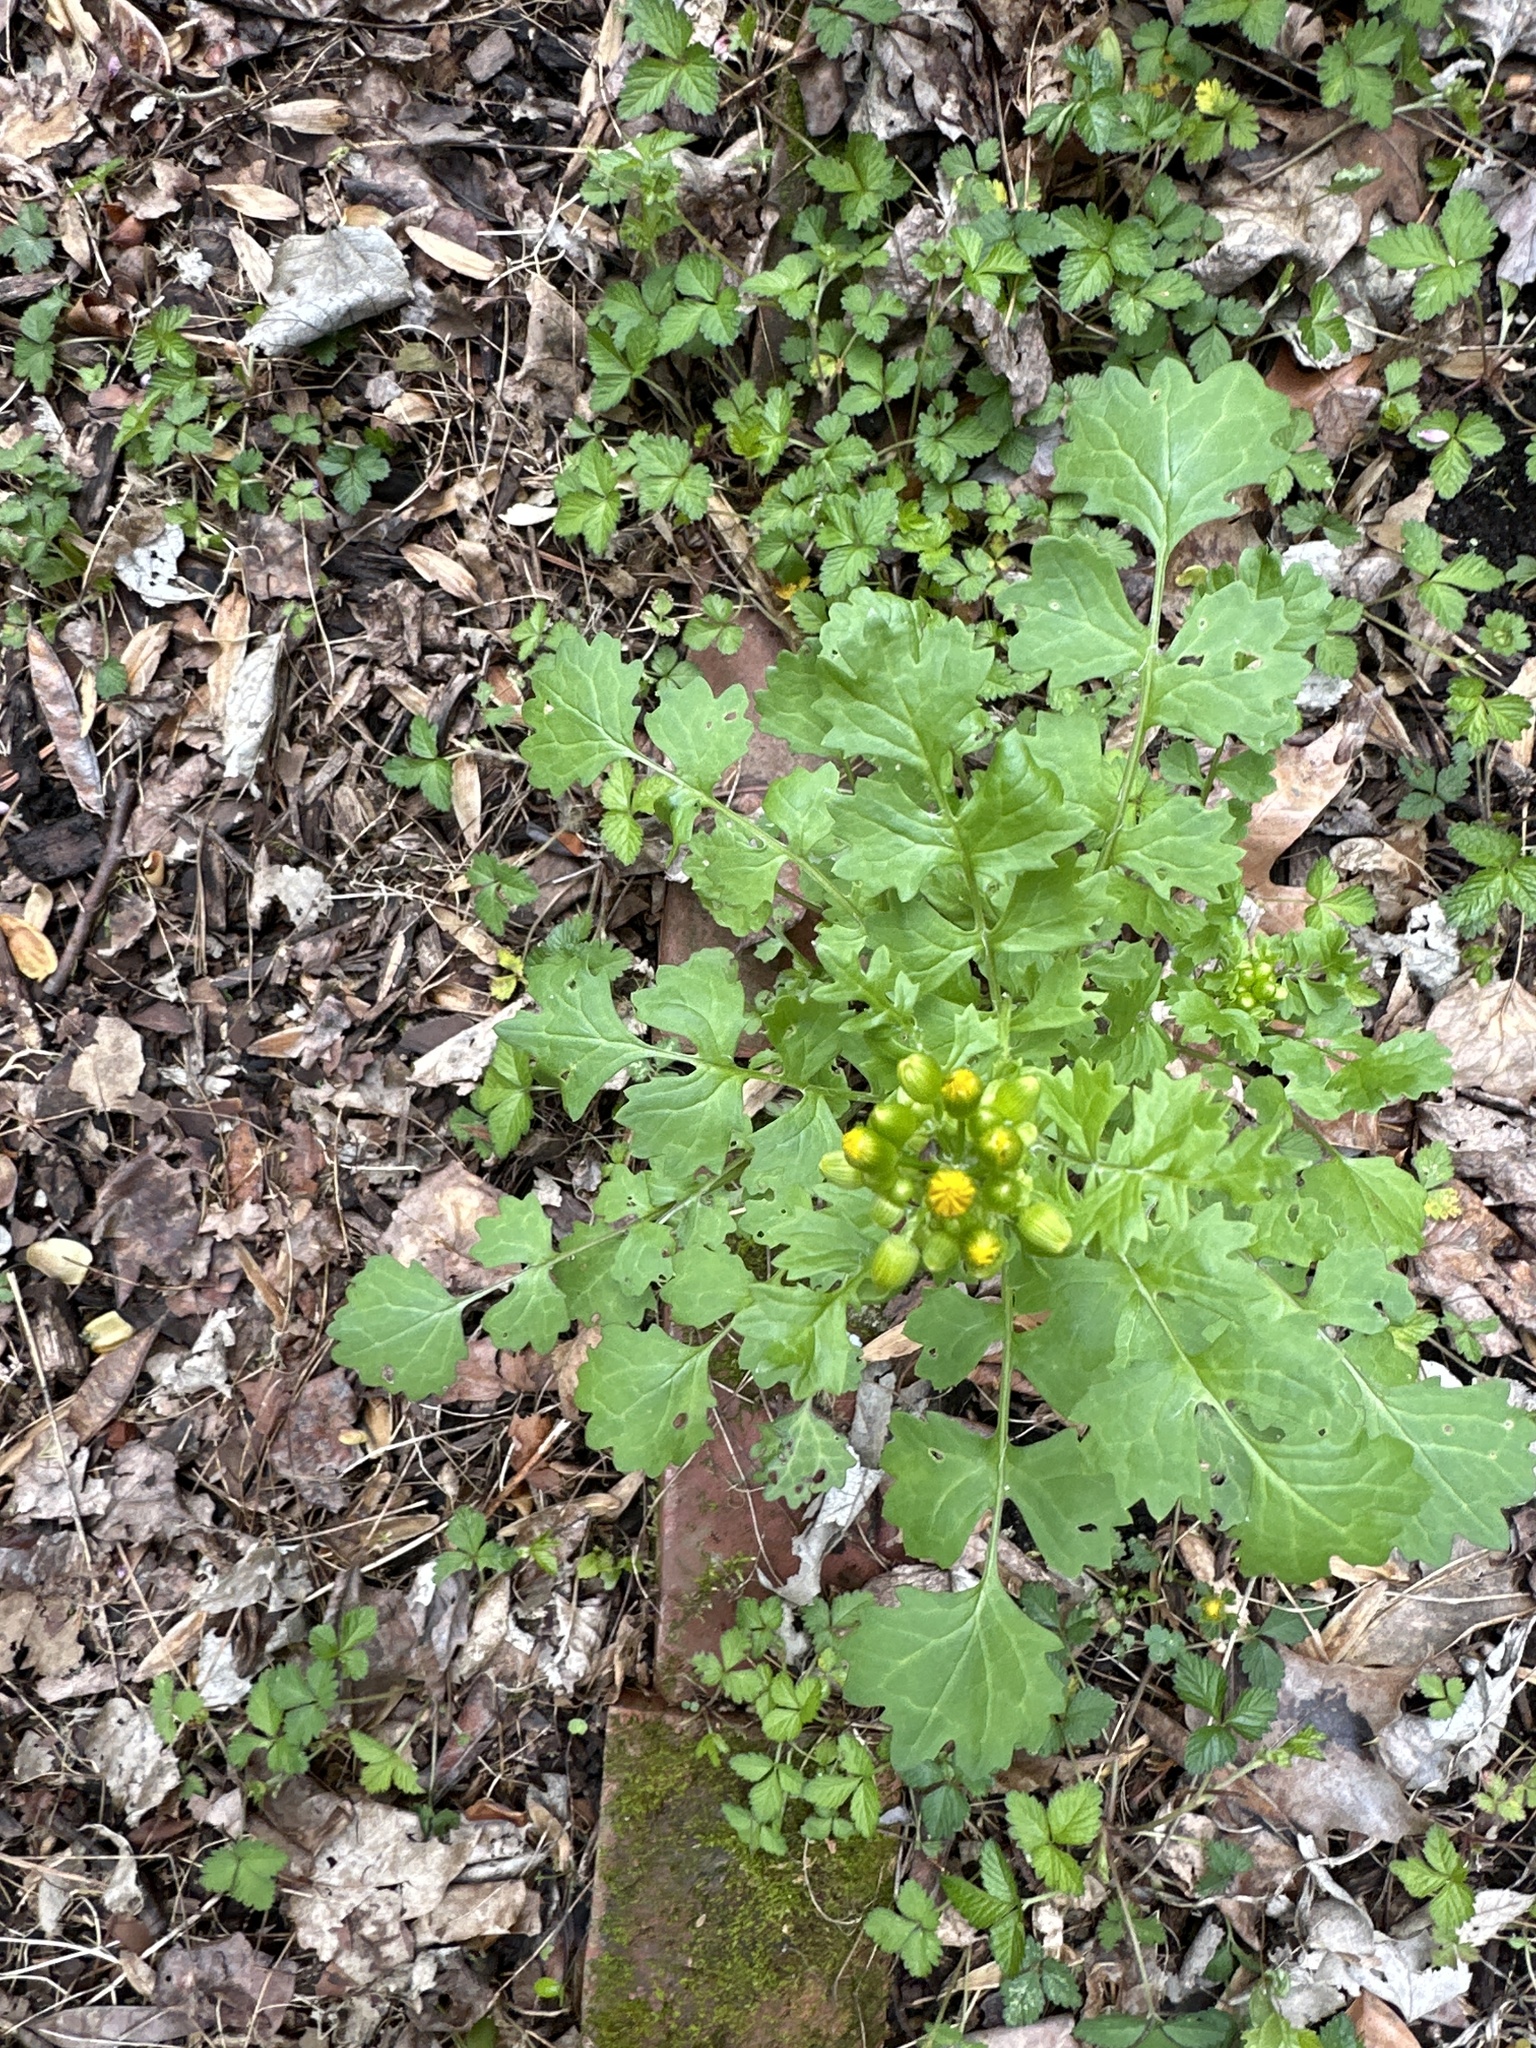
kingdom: Plantae
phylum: Tracheophyta
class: Magnoliopsida
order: Asterales
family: Asteraceae
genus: Packera
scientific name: Packera glabella
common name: Butterweed
